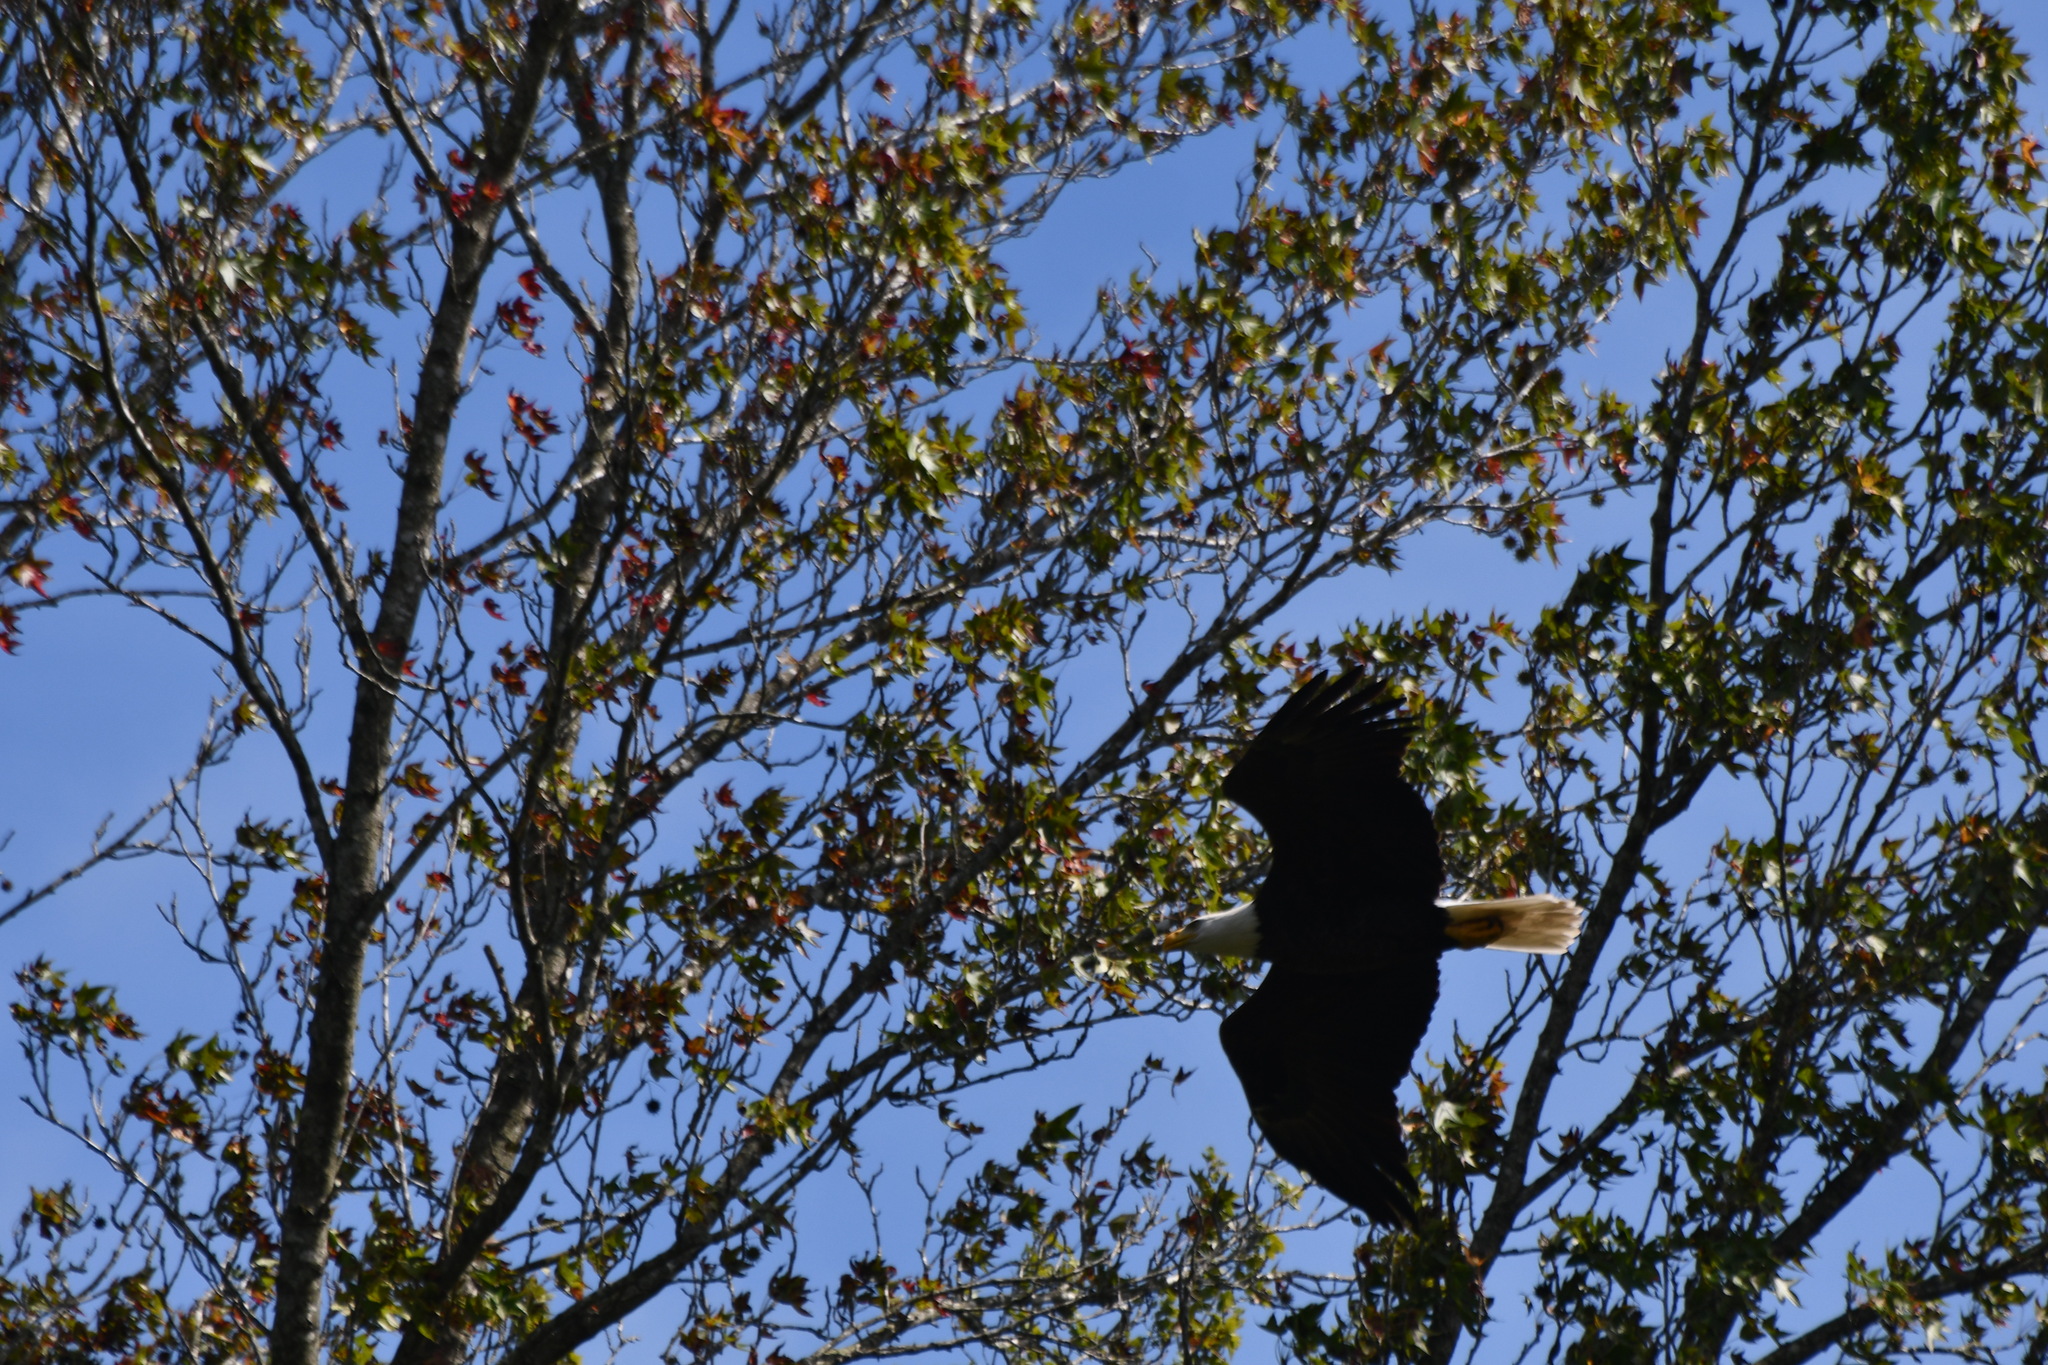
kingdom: Animalia
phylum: Chordata
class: Aves
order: Accipitriformes
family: Accipitridae
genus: Haliaeetus
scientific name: Haliaeetus leucocephalus
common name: Bald eagle
